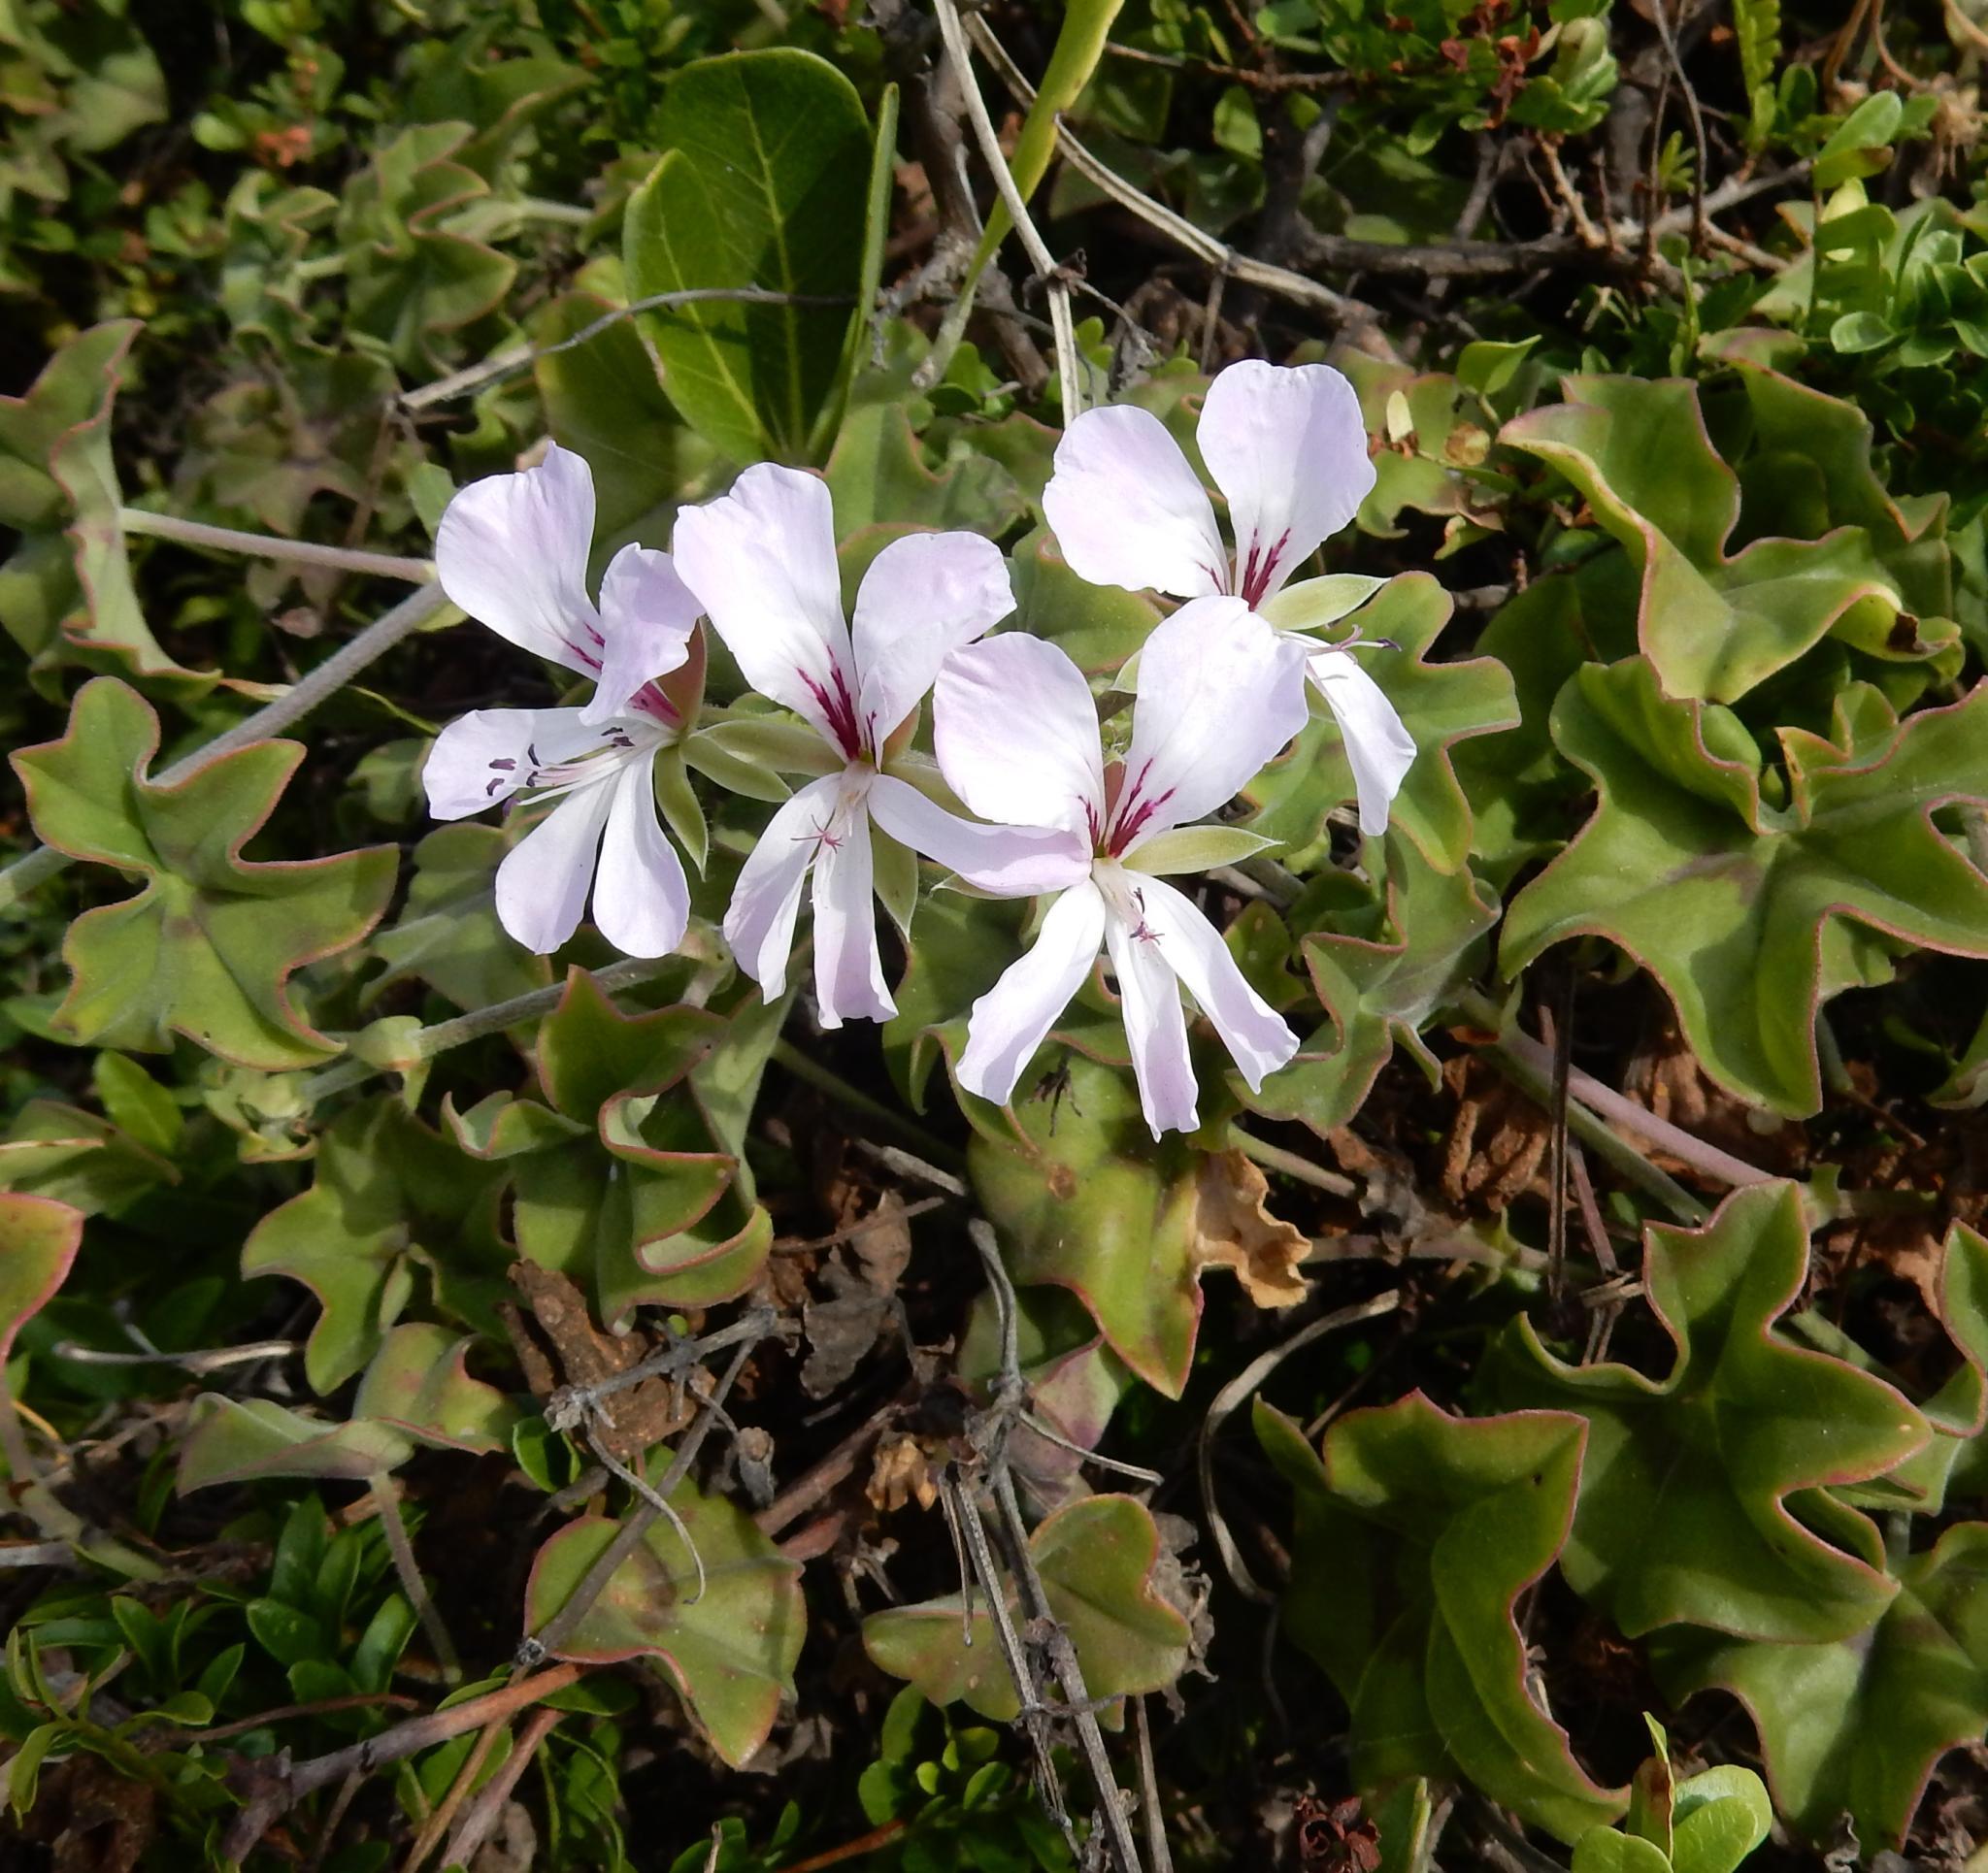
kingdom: Plantae
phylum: Tracheophyta
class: Magnoliopsida
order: Geraniales
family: Geraniaceae
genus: Pelargonium
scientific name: Pelargonium peltatum
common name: Ivyleaf geranium
